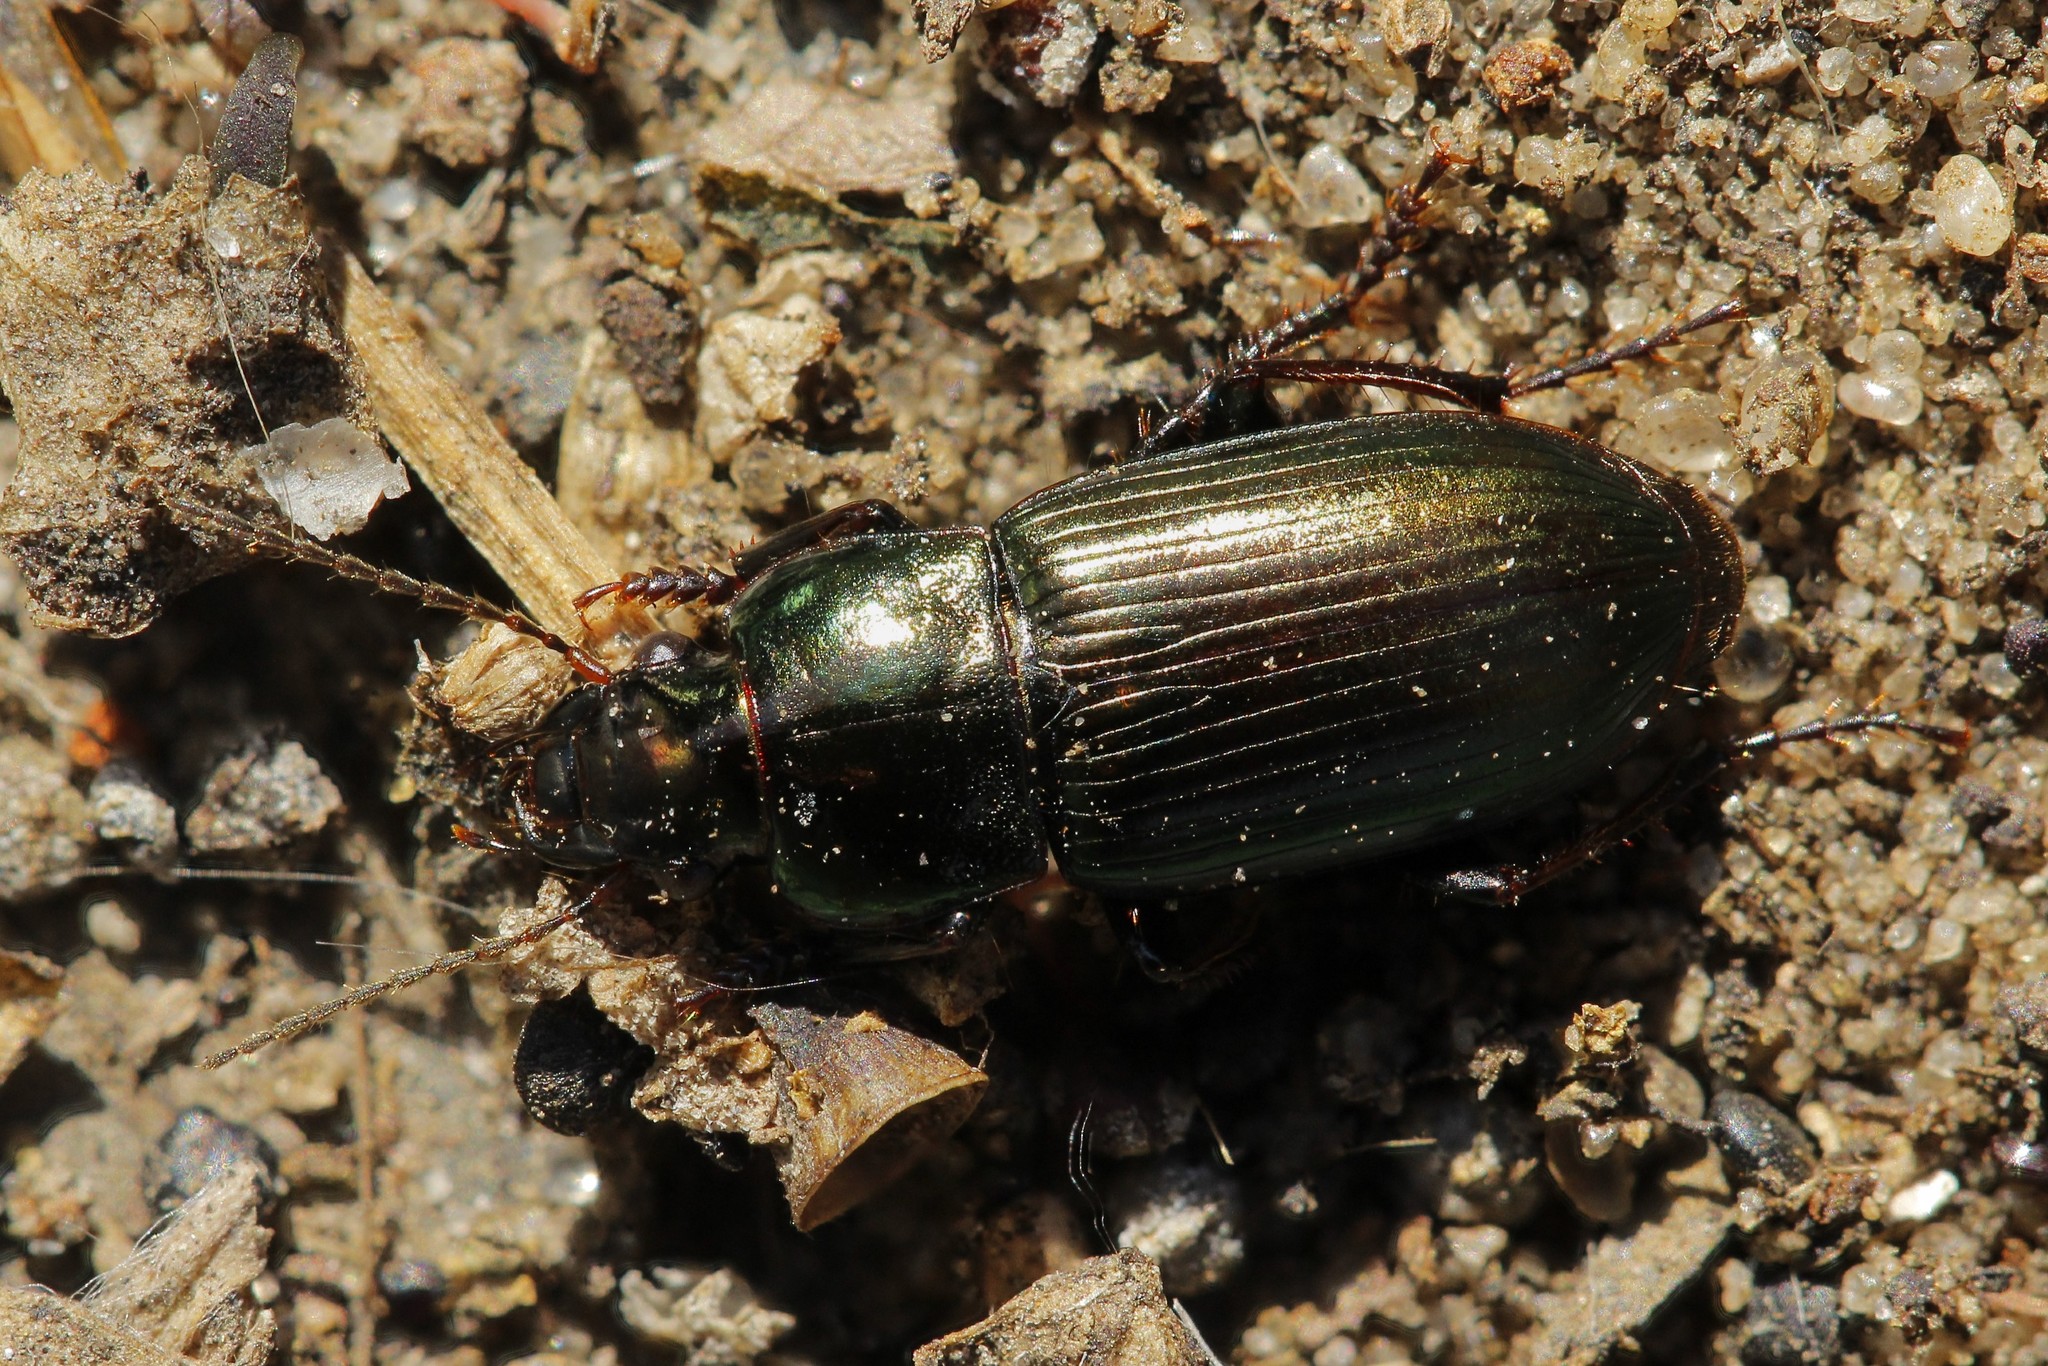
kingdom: Animalia
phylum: Arthropoda
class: Insecta
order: Coleoptera
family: Carabidae
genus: Harpalus
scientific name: Harpalus distinguendus
